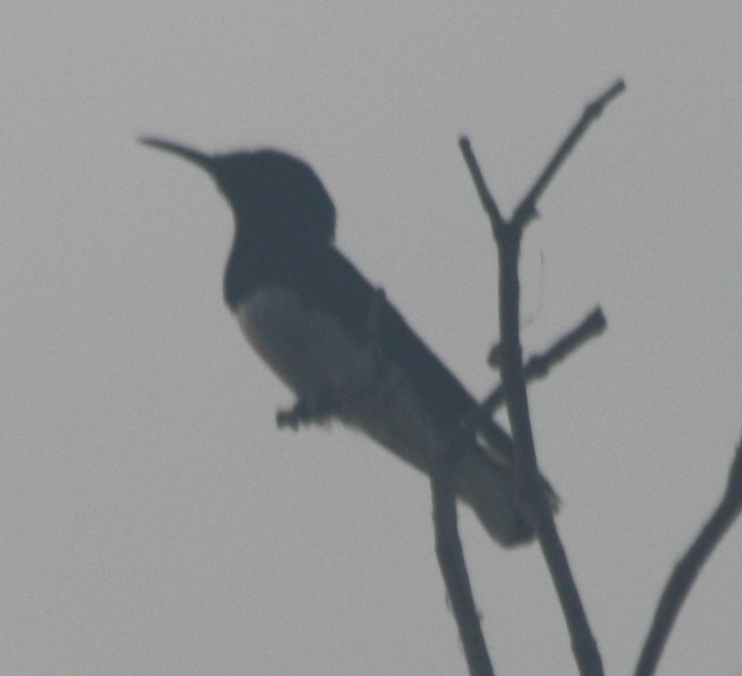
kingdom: Animalia
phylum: Chordata
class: Aves
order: Apodiformes
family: Trochilidae
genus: Florisuga
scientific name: Florisuga mellivora
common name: White-necked jacobin
